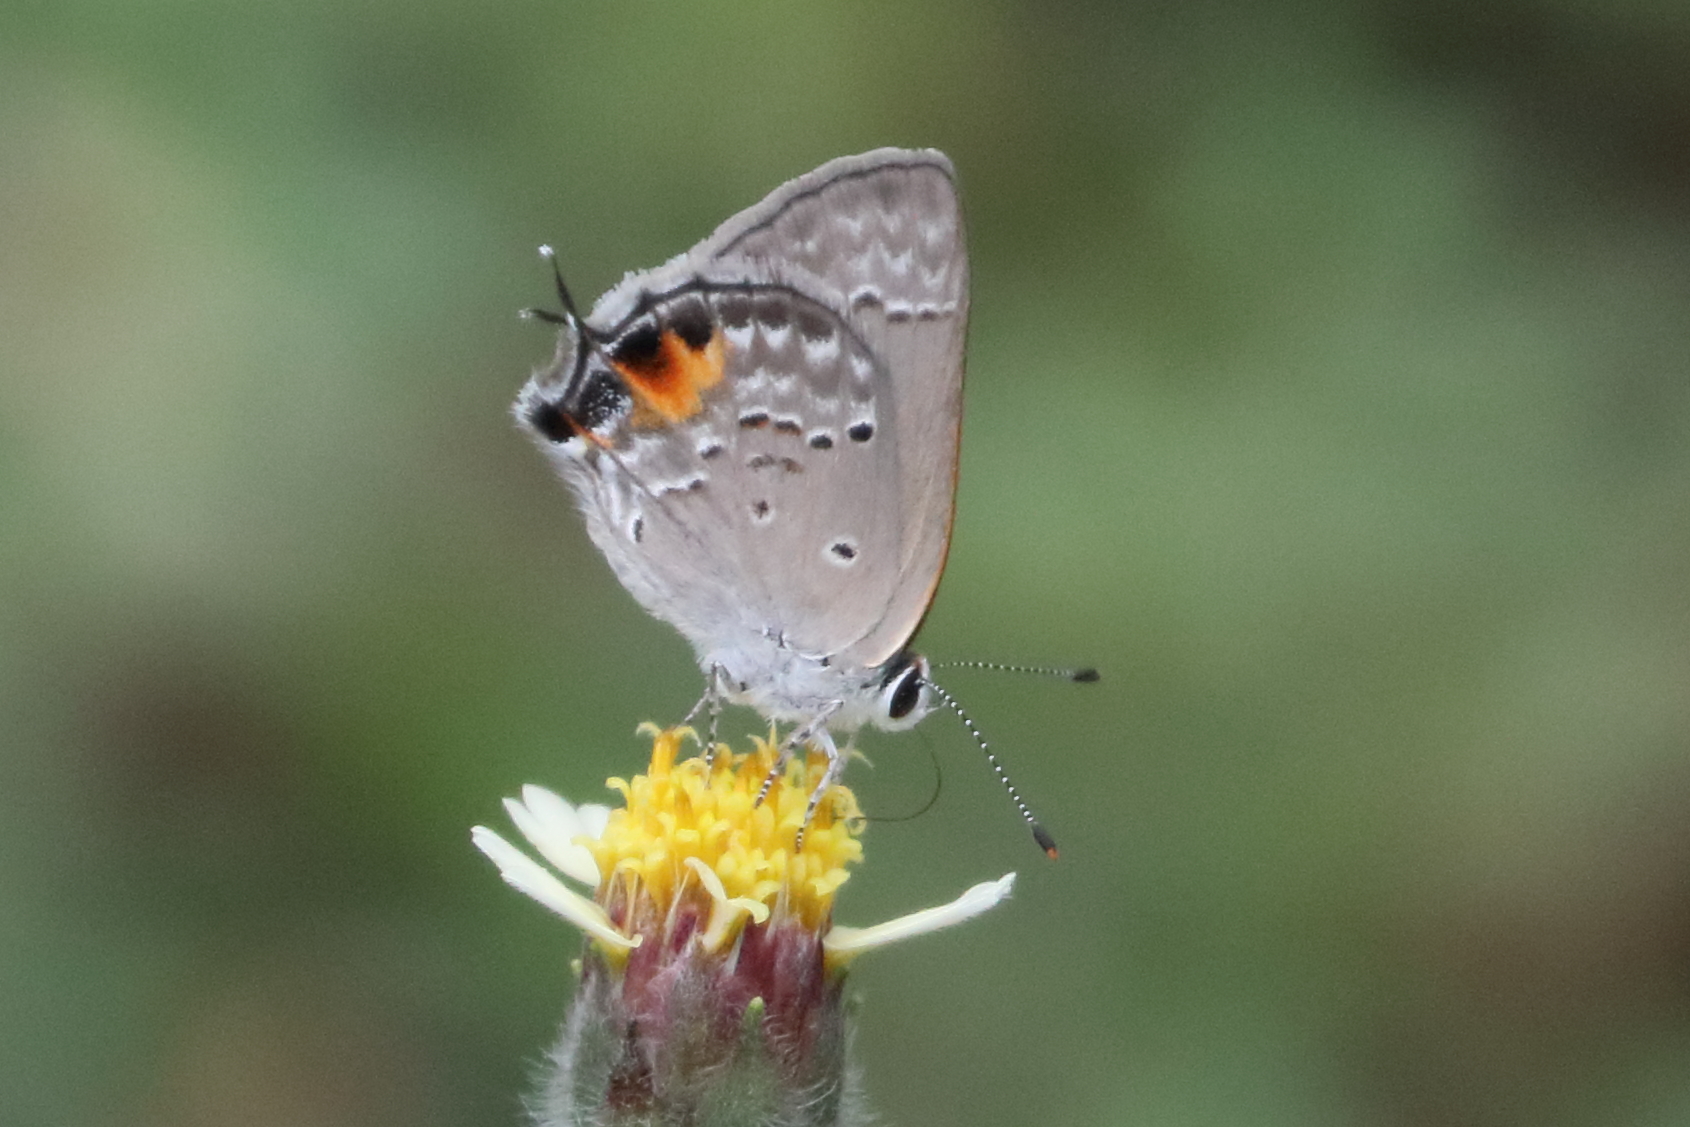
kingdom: Animalia
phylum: Arthropoda
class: Insecta
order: Lepidoptera
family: Lycaenidae
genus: Callicista
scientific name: Callicista columella
